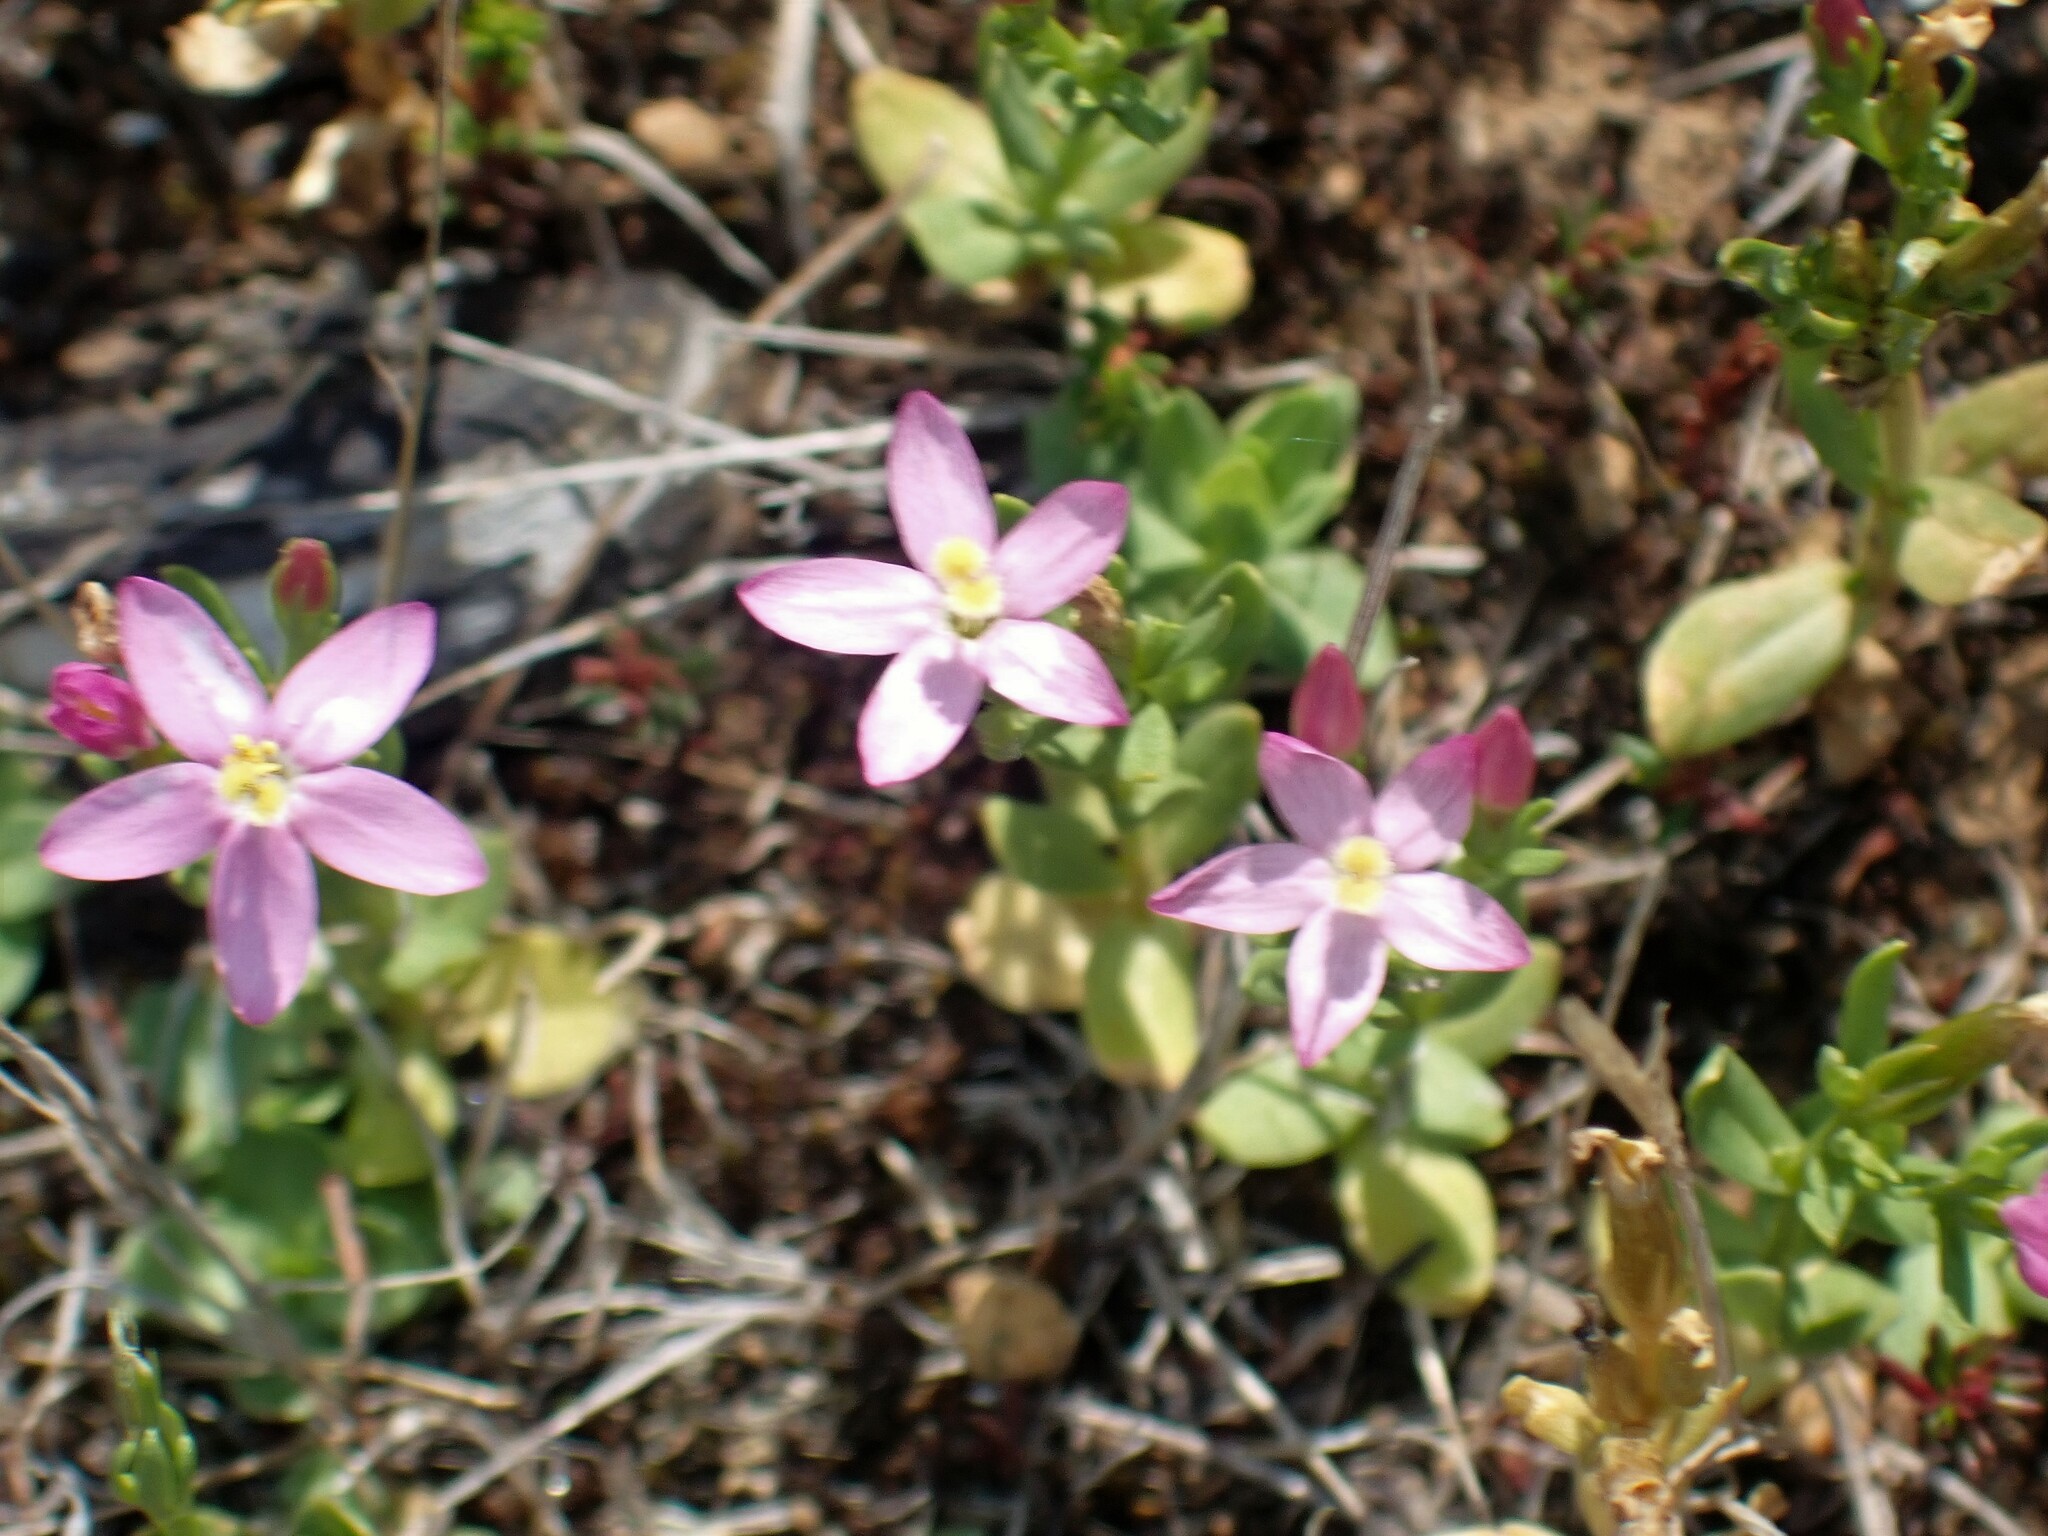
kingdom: Plantae
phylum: Tracheophyta
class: Magnoliopsida
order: Gentianales
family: Gentianaceae
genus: Centaurium
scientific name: Centaurium grandiflorum
